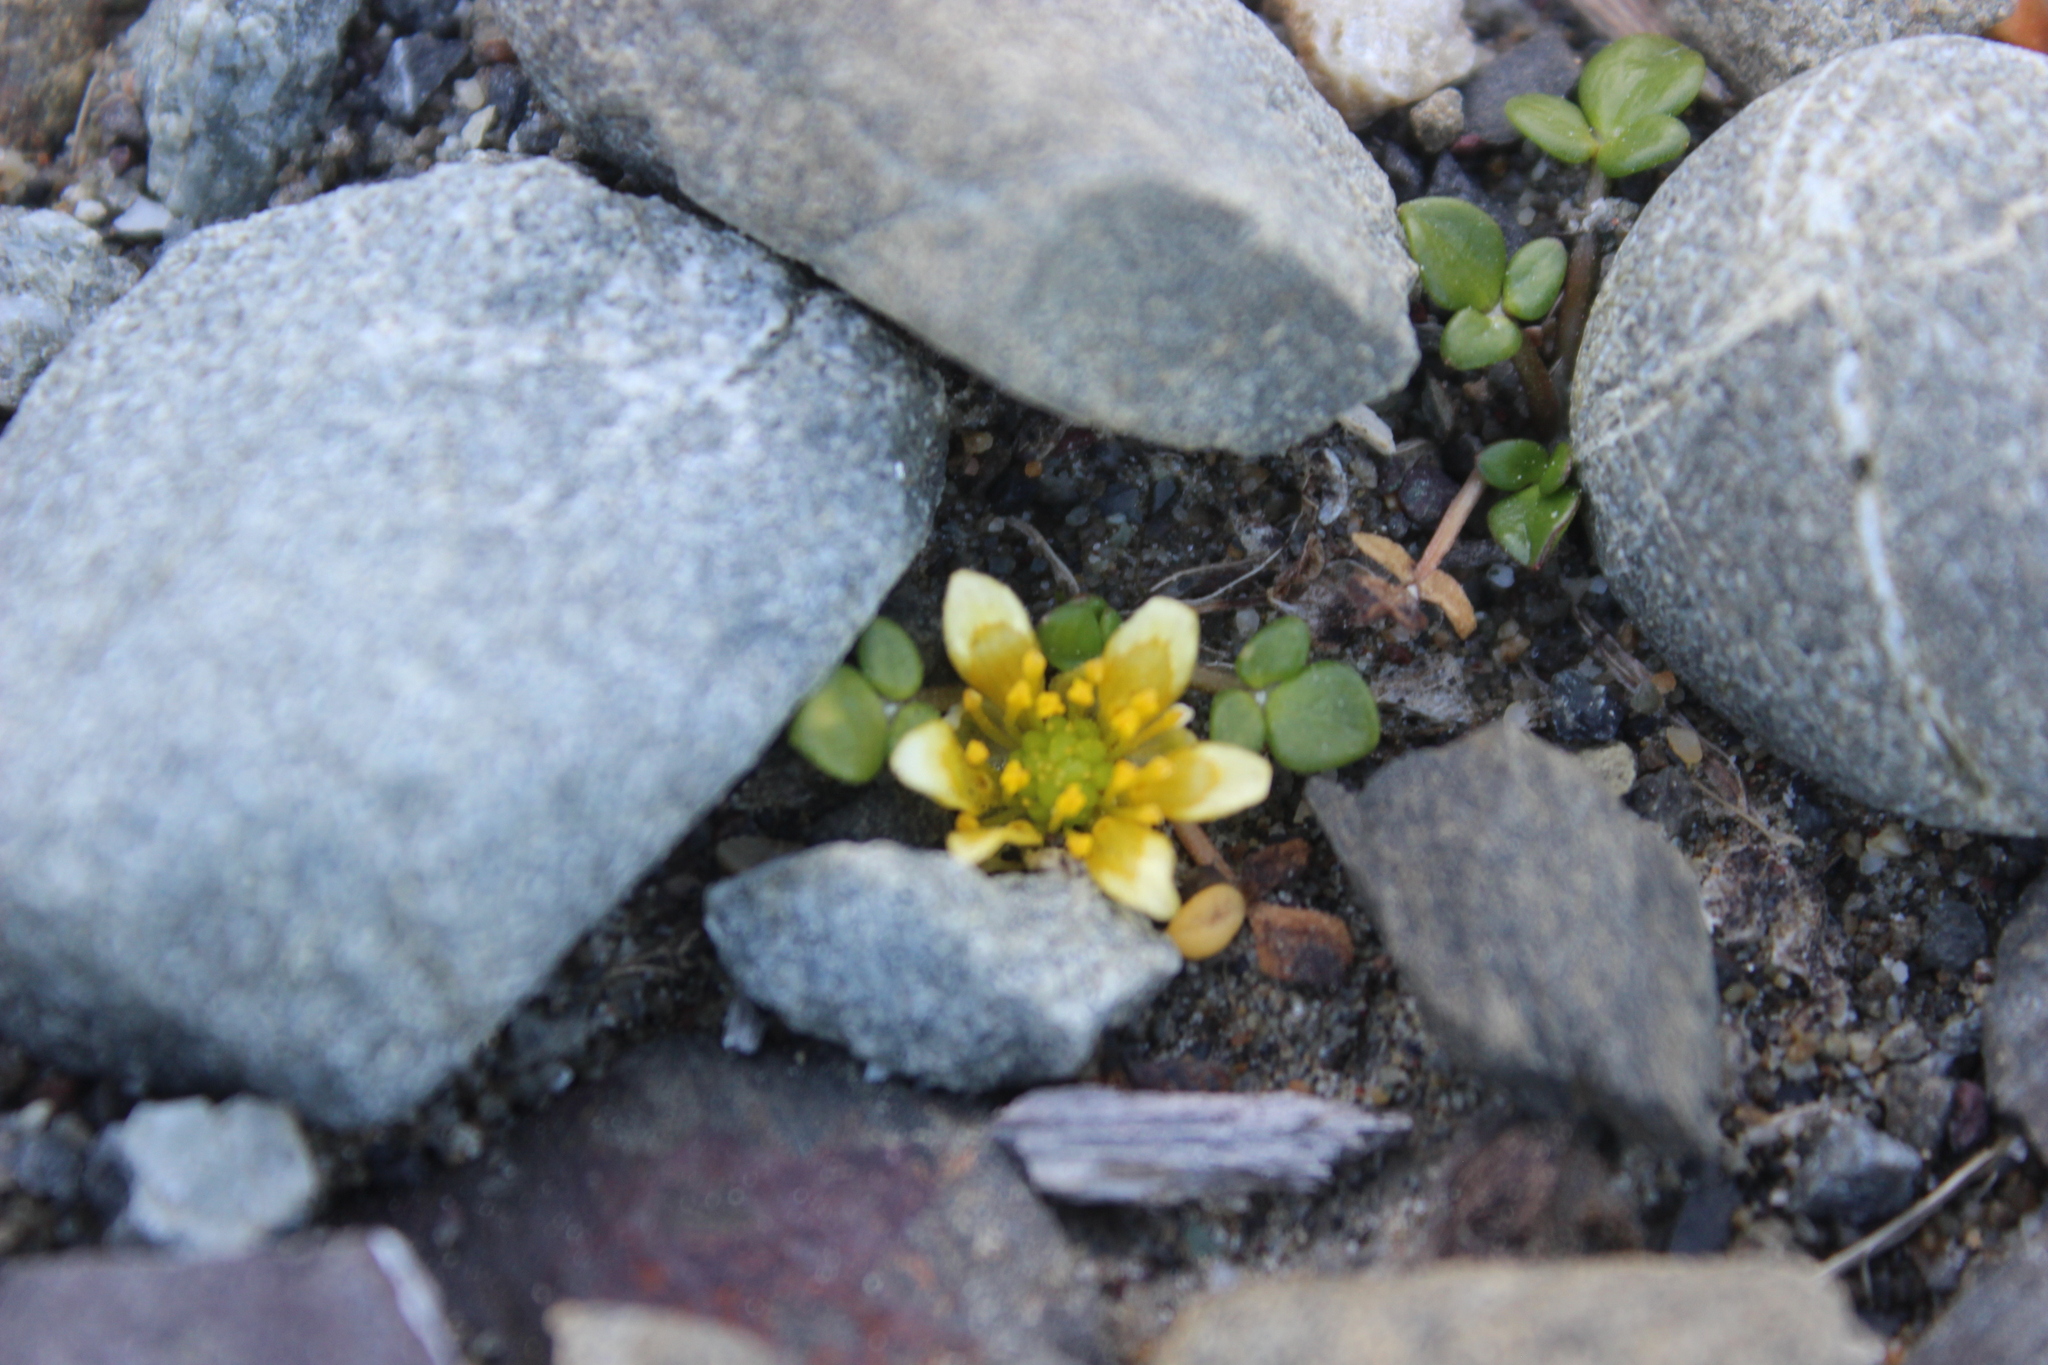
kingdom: Plantae
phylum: Tracheophyta
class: Magnoliopsida
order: Ranunculales
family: Ranunculaceae
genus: Ranunculus
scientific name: Ranunculus acaulis
